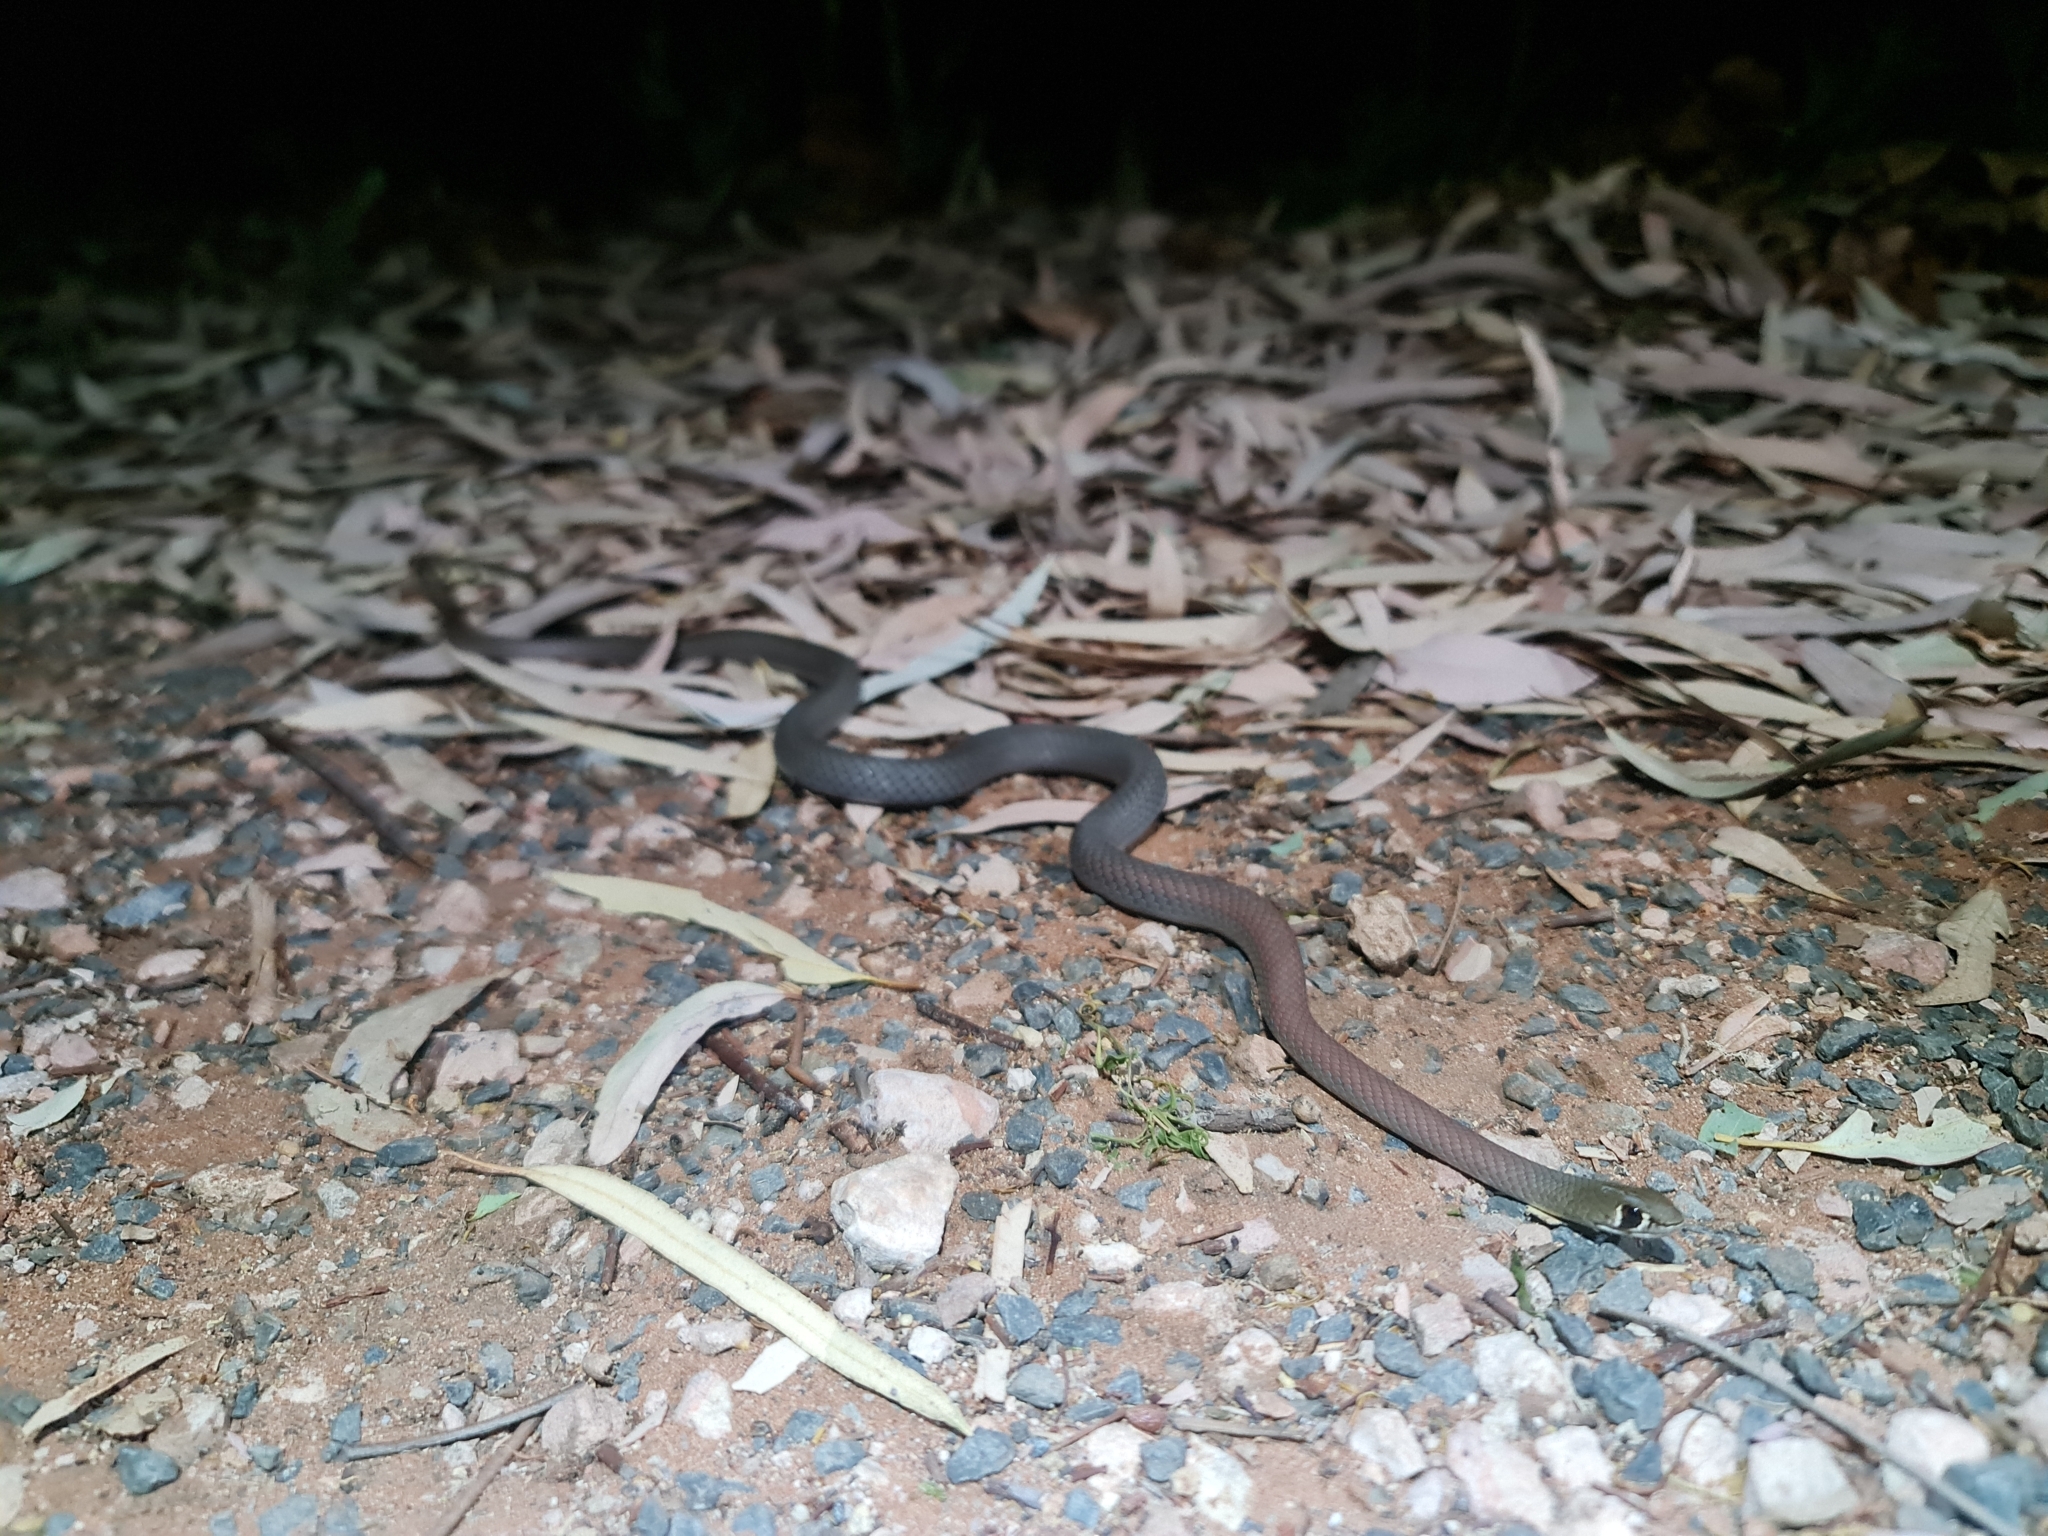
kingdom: Animalia
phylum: Chordata
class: Squamata
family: Elapidae
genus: Demansia
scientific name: Demansia psammophis
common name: Yellow-faced whip snake
